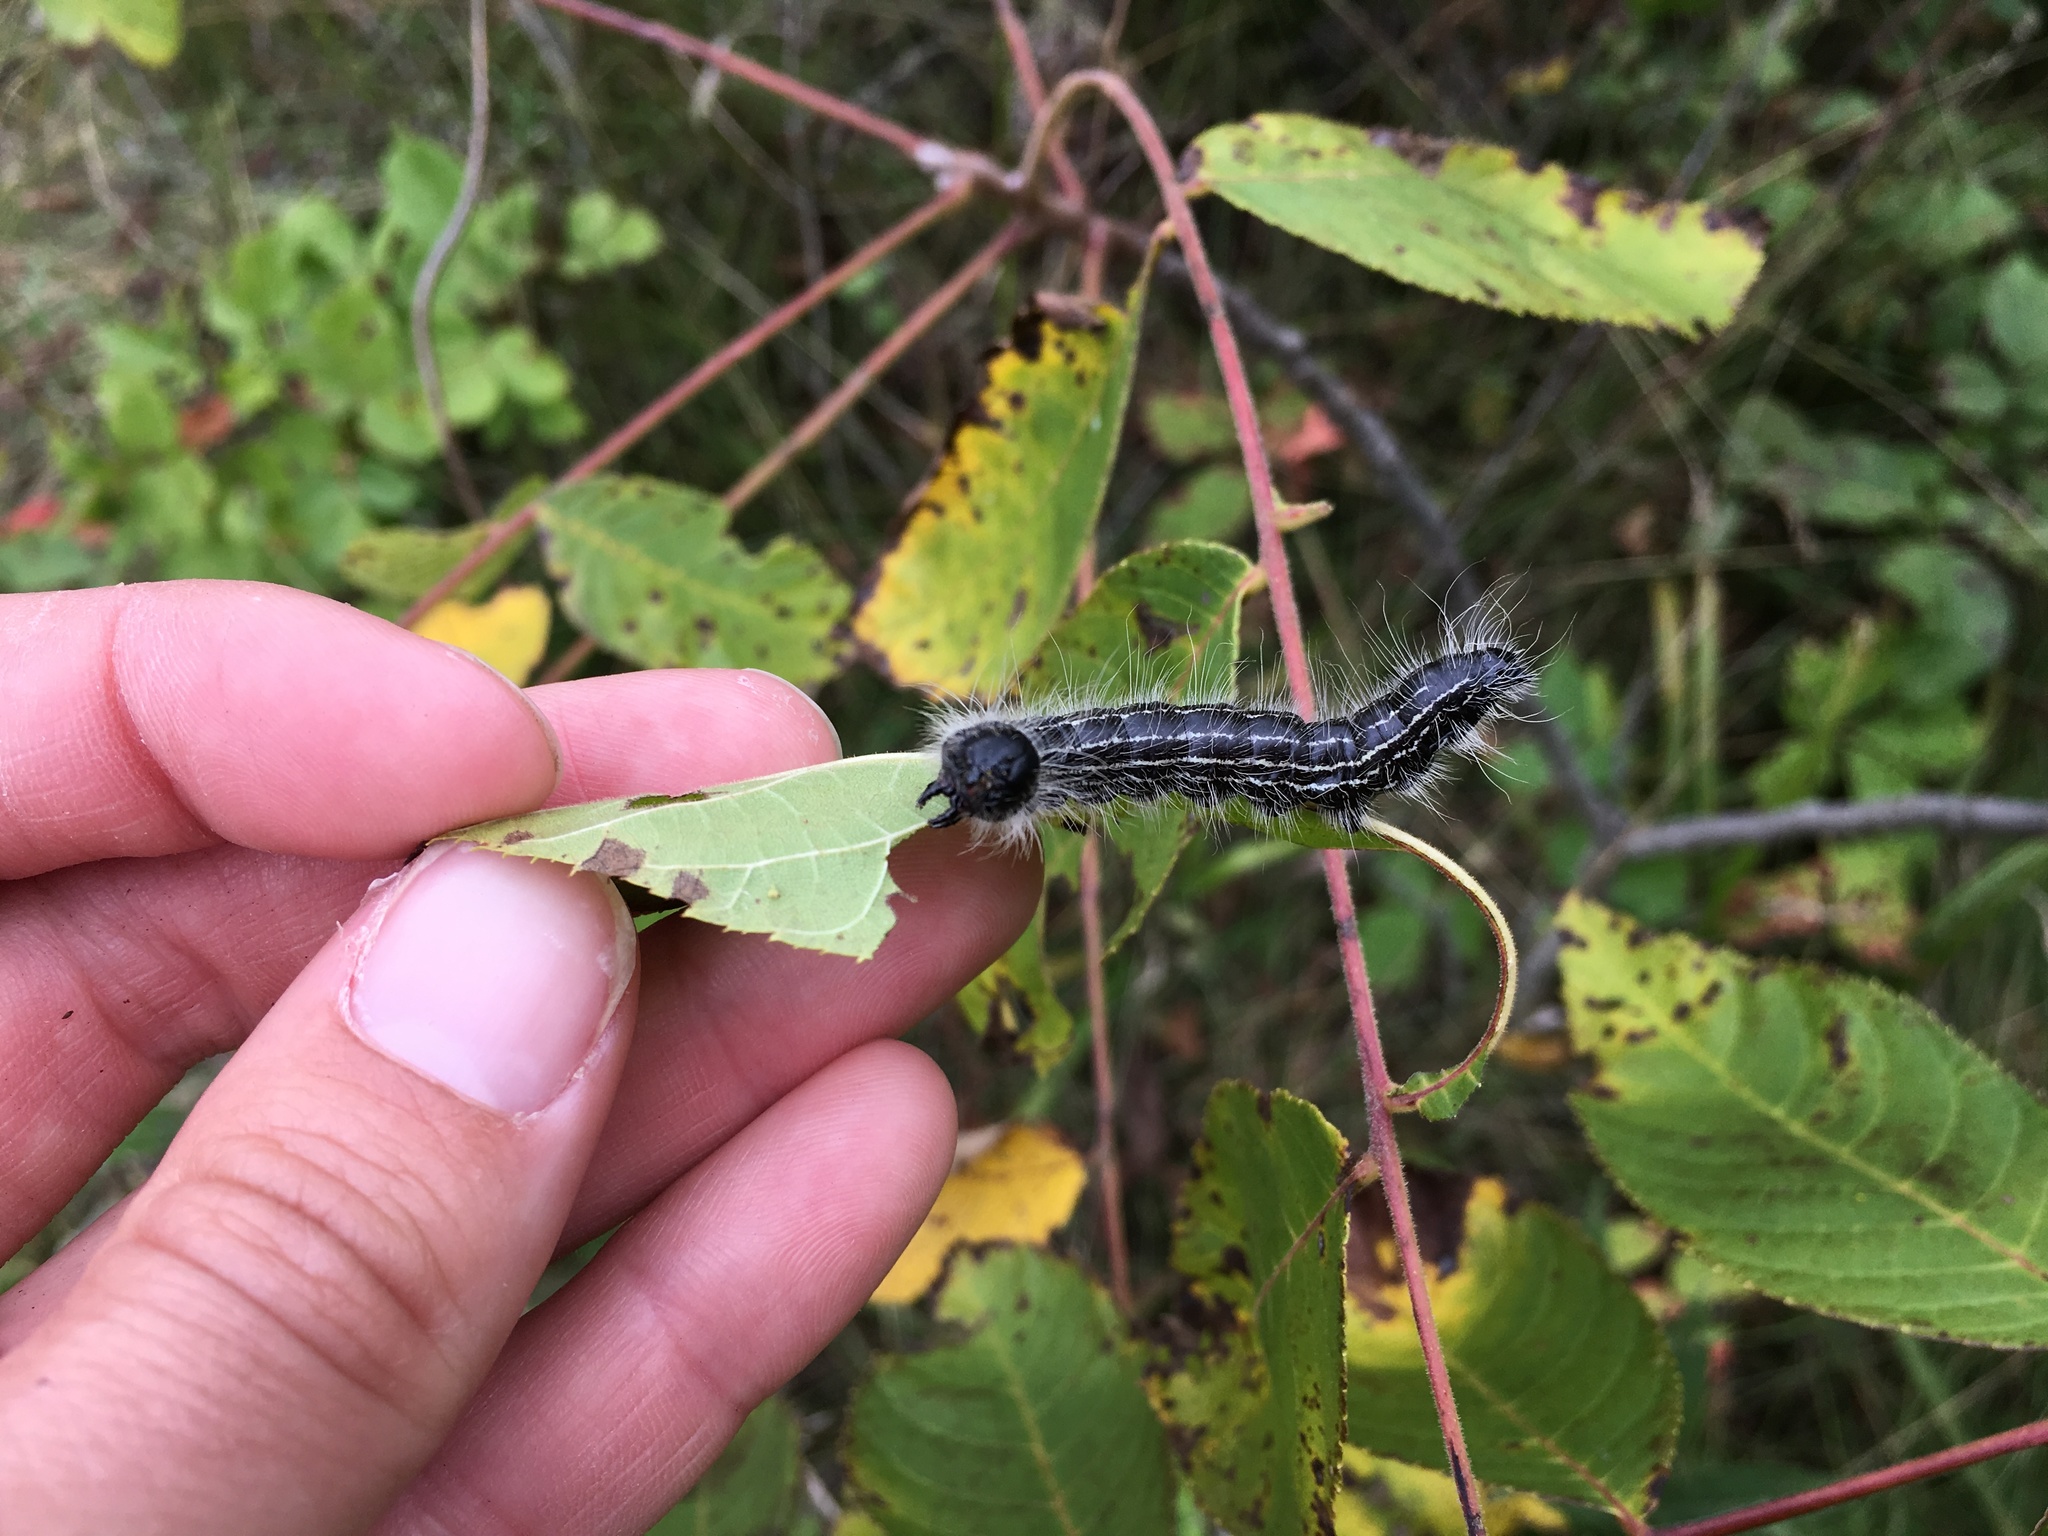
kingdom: Animalia
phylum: Arthropoda
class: Insecta
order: Lepidoptera
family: Notodontidae
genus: Datana
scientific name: Datana integerrima
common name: Walnut caterpillar
